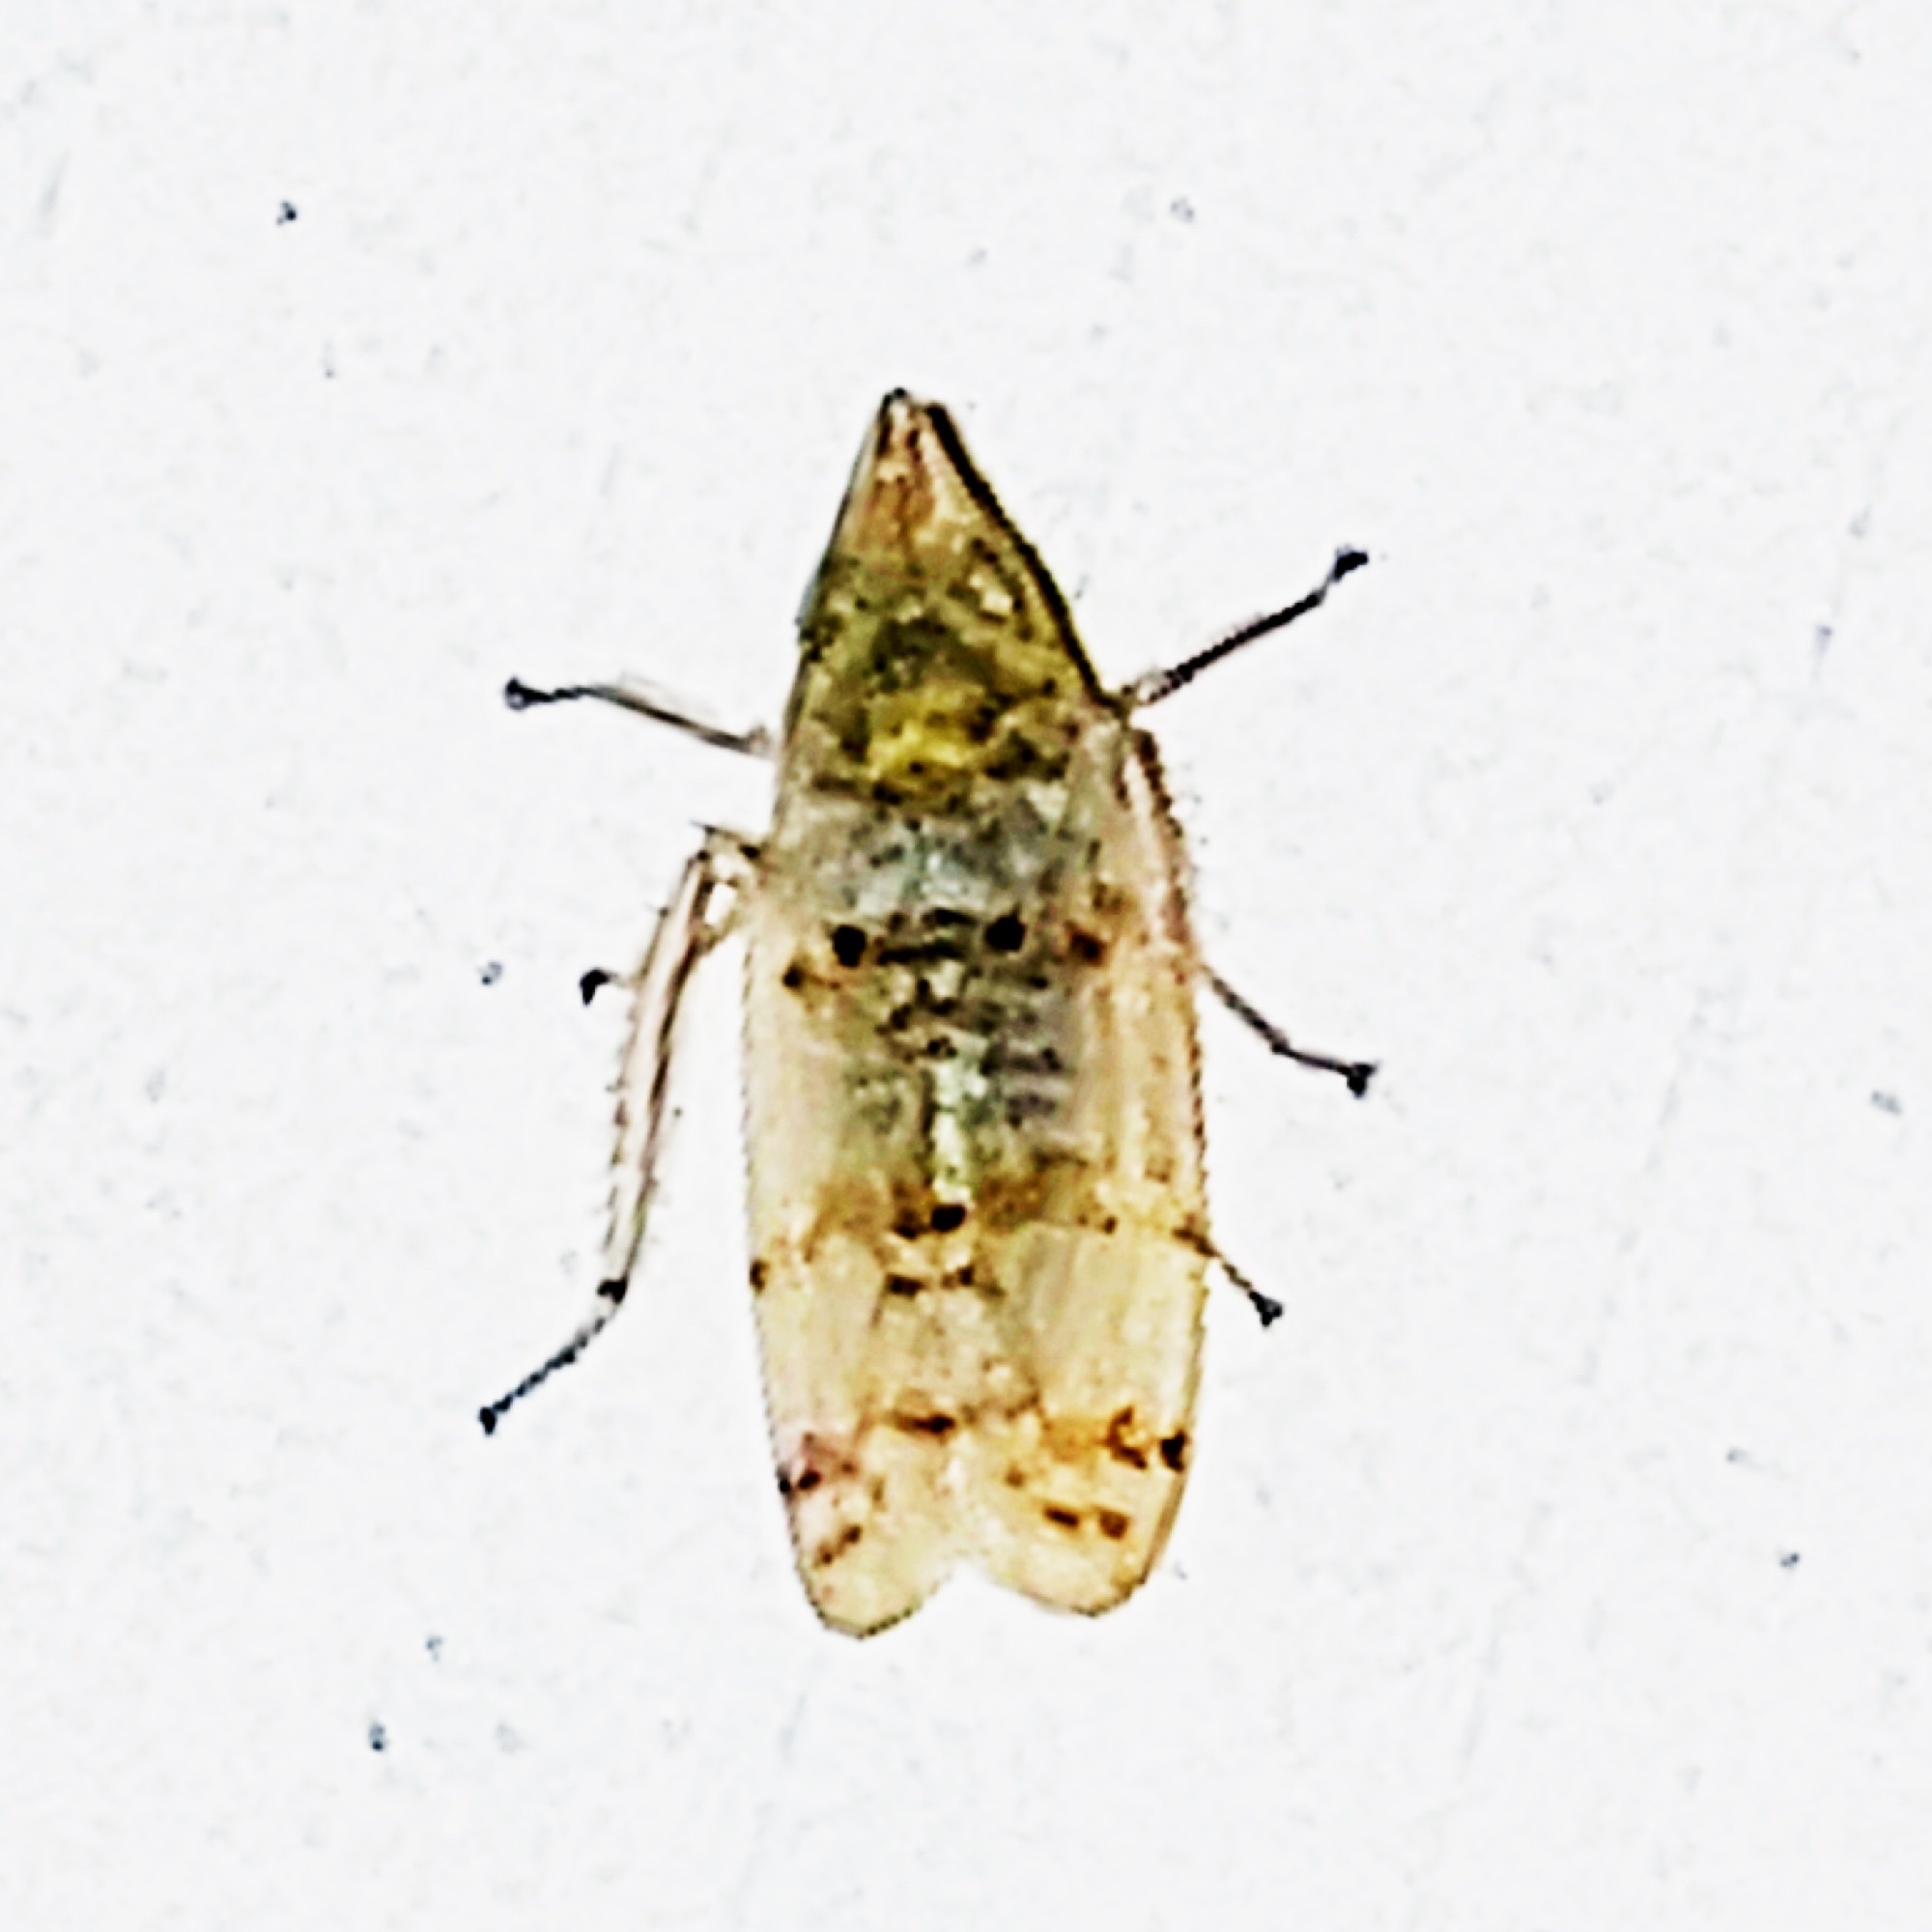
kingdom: Animalia
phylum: Arthropoda
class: Insecta
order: Hemiptera
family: Cicadellidae
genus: Japananus
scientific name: Japananus hyalinus
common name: The japanese maple leafhopper
